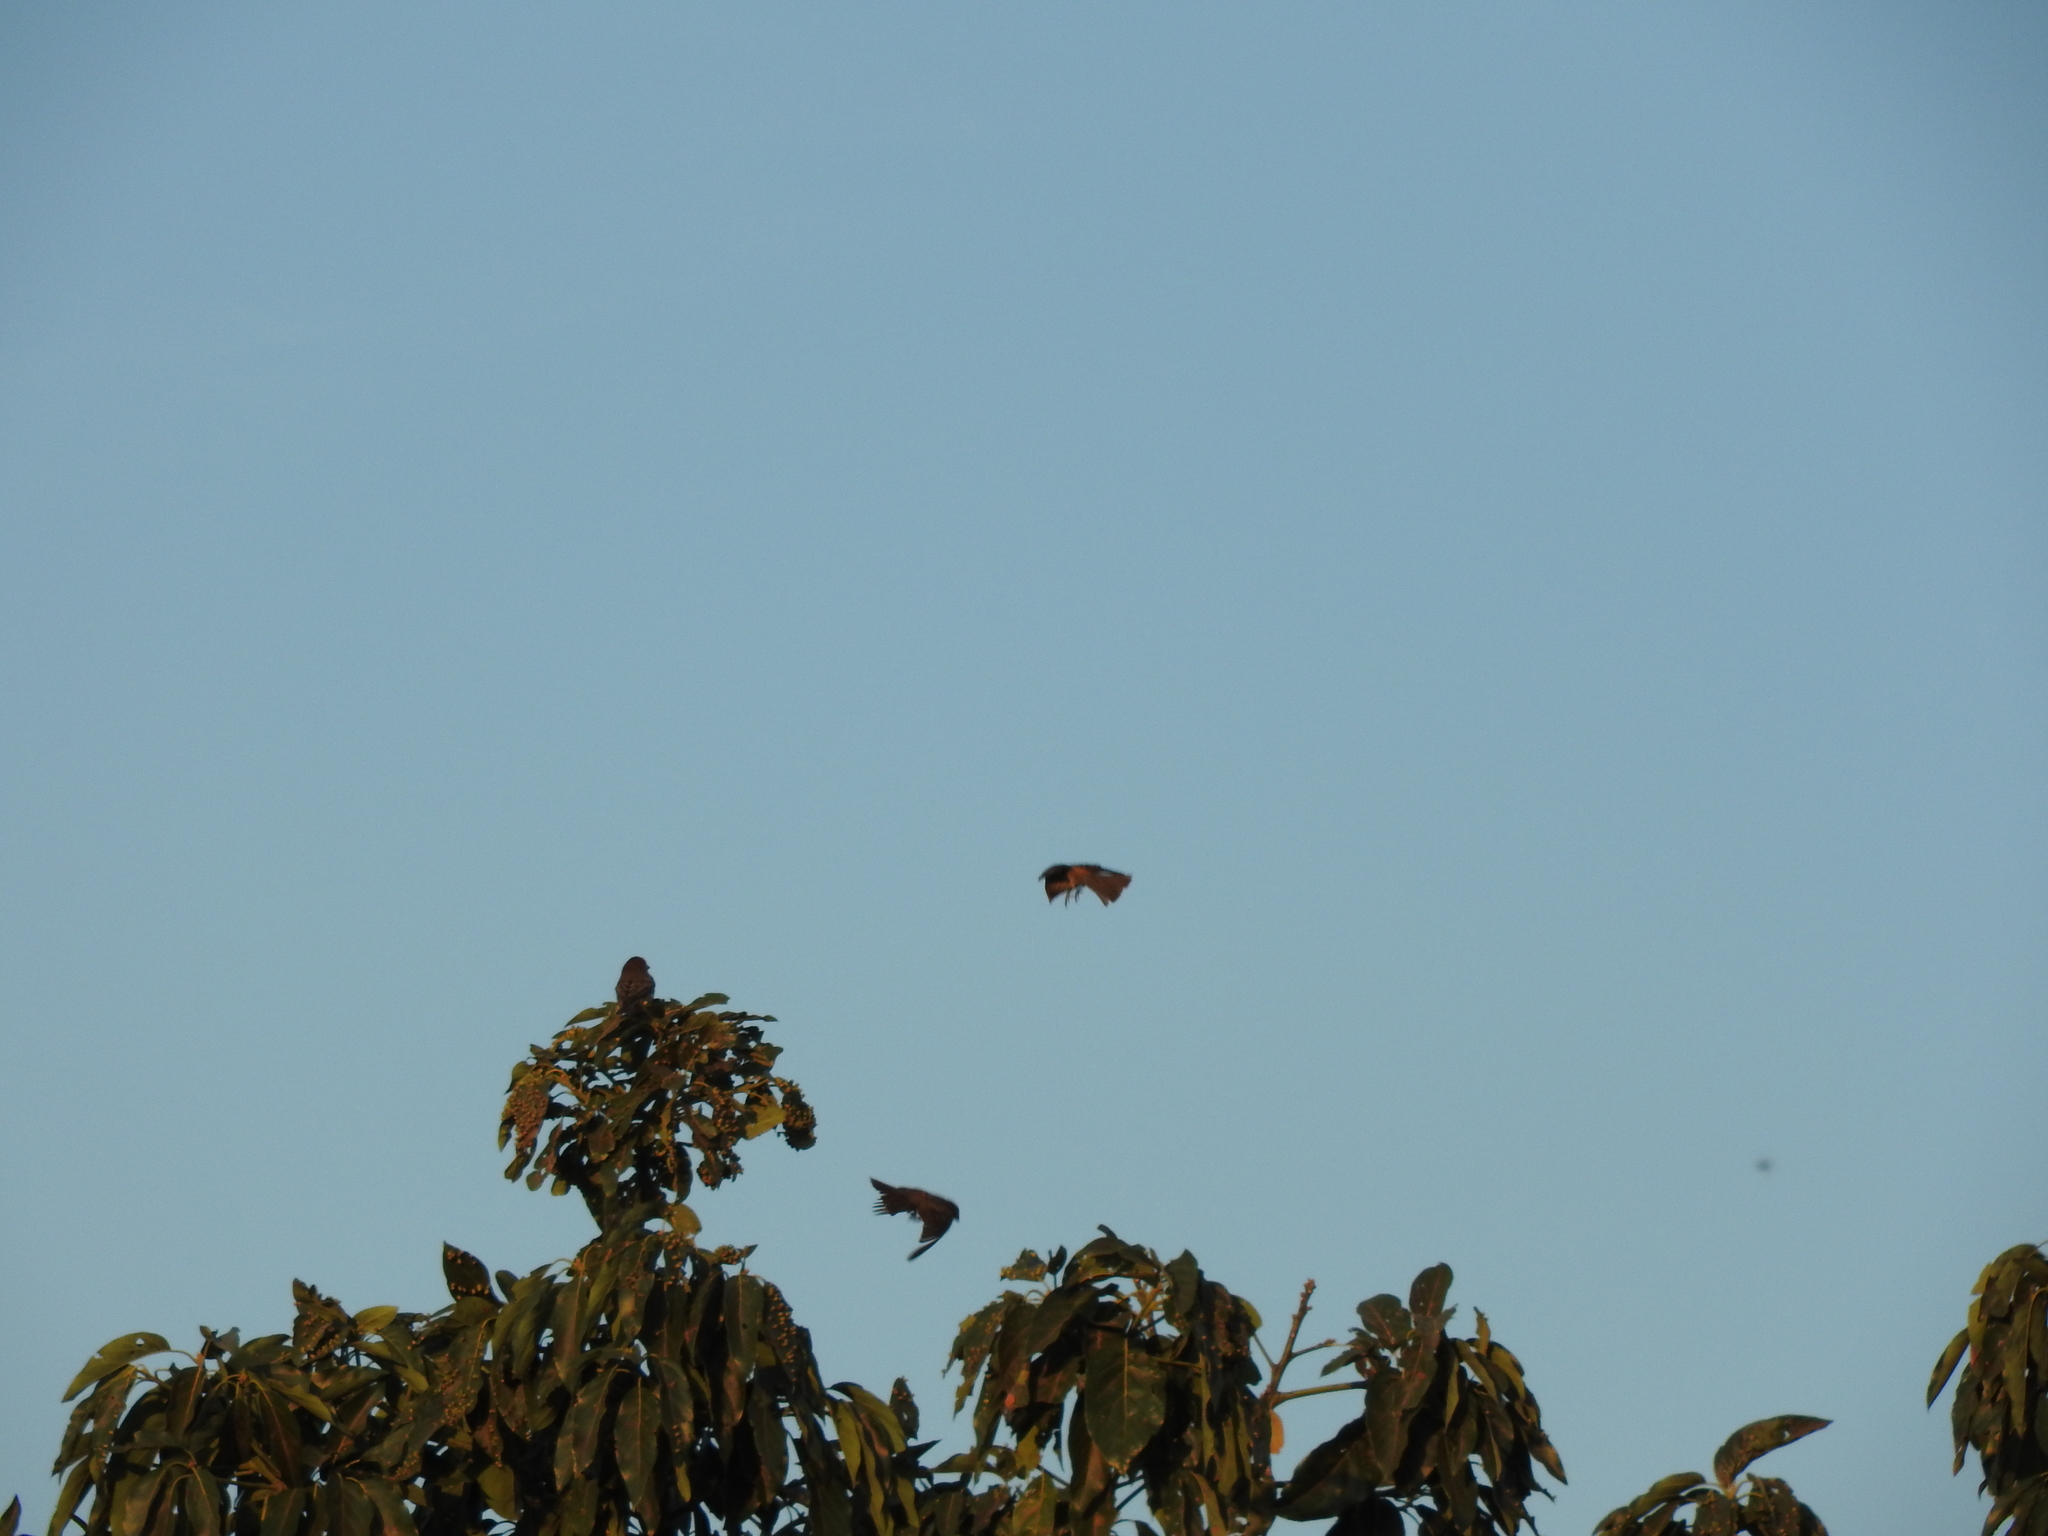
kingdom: Animalia
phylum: Chordata
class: Aves
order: Passeriformes
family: Fringillidae
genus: Haemorhous
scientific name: Haemorhous mexicanus
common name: House finch
